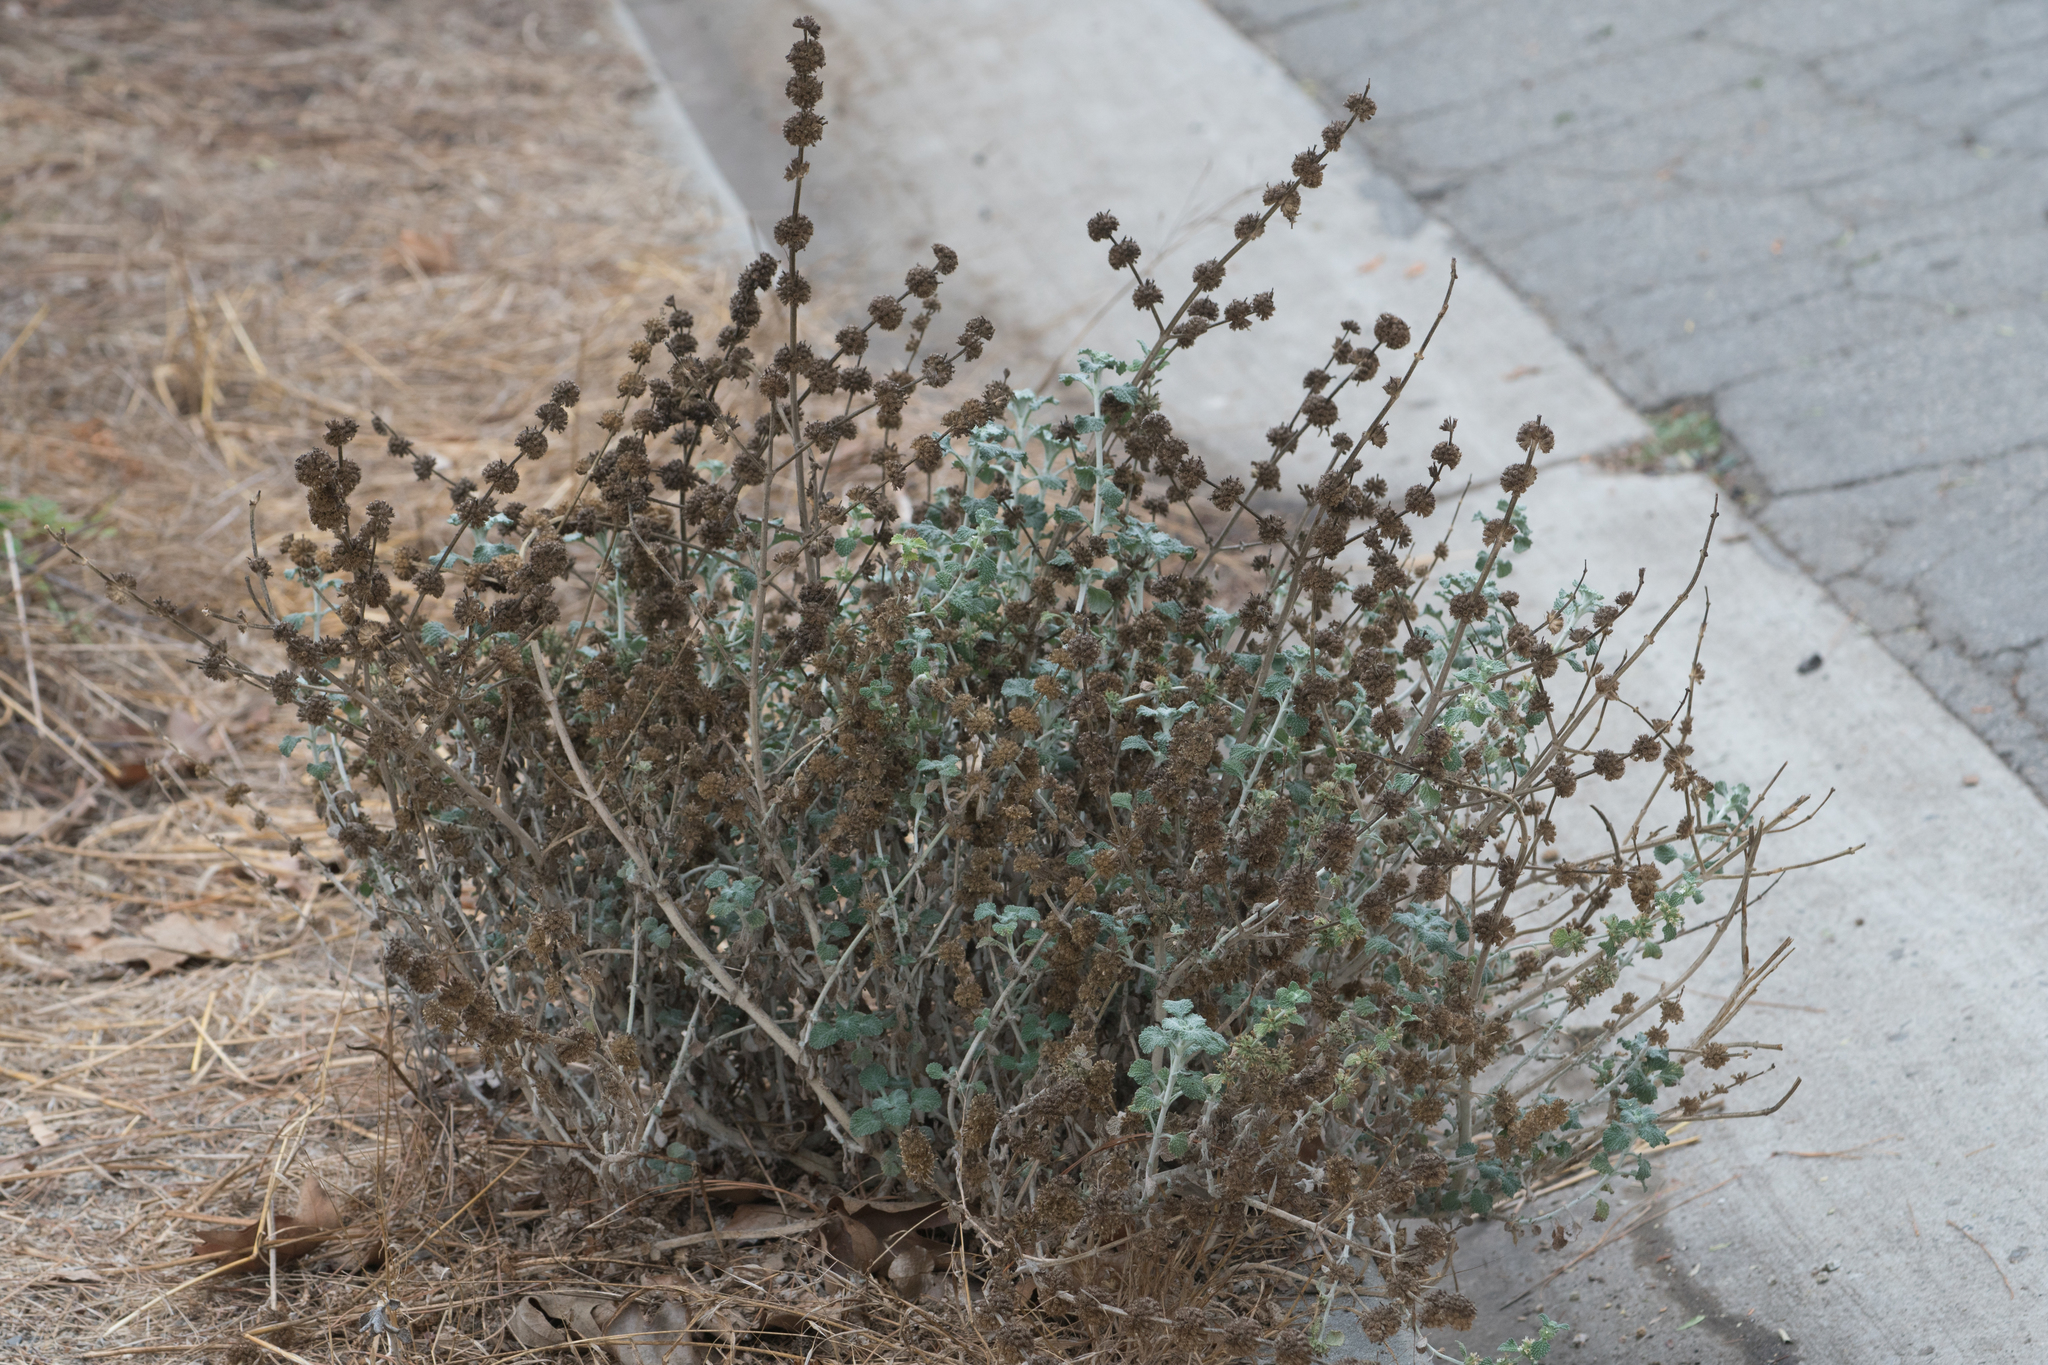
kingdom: Plantae
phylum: Tracheophyta
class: Magnoliopsida
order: Lamiales
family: Lamiaceae
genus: Marrubium
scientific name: Marrubium vulgare
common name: Horehound
